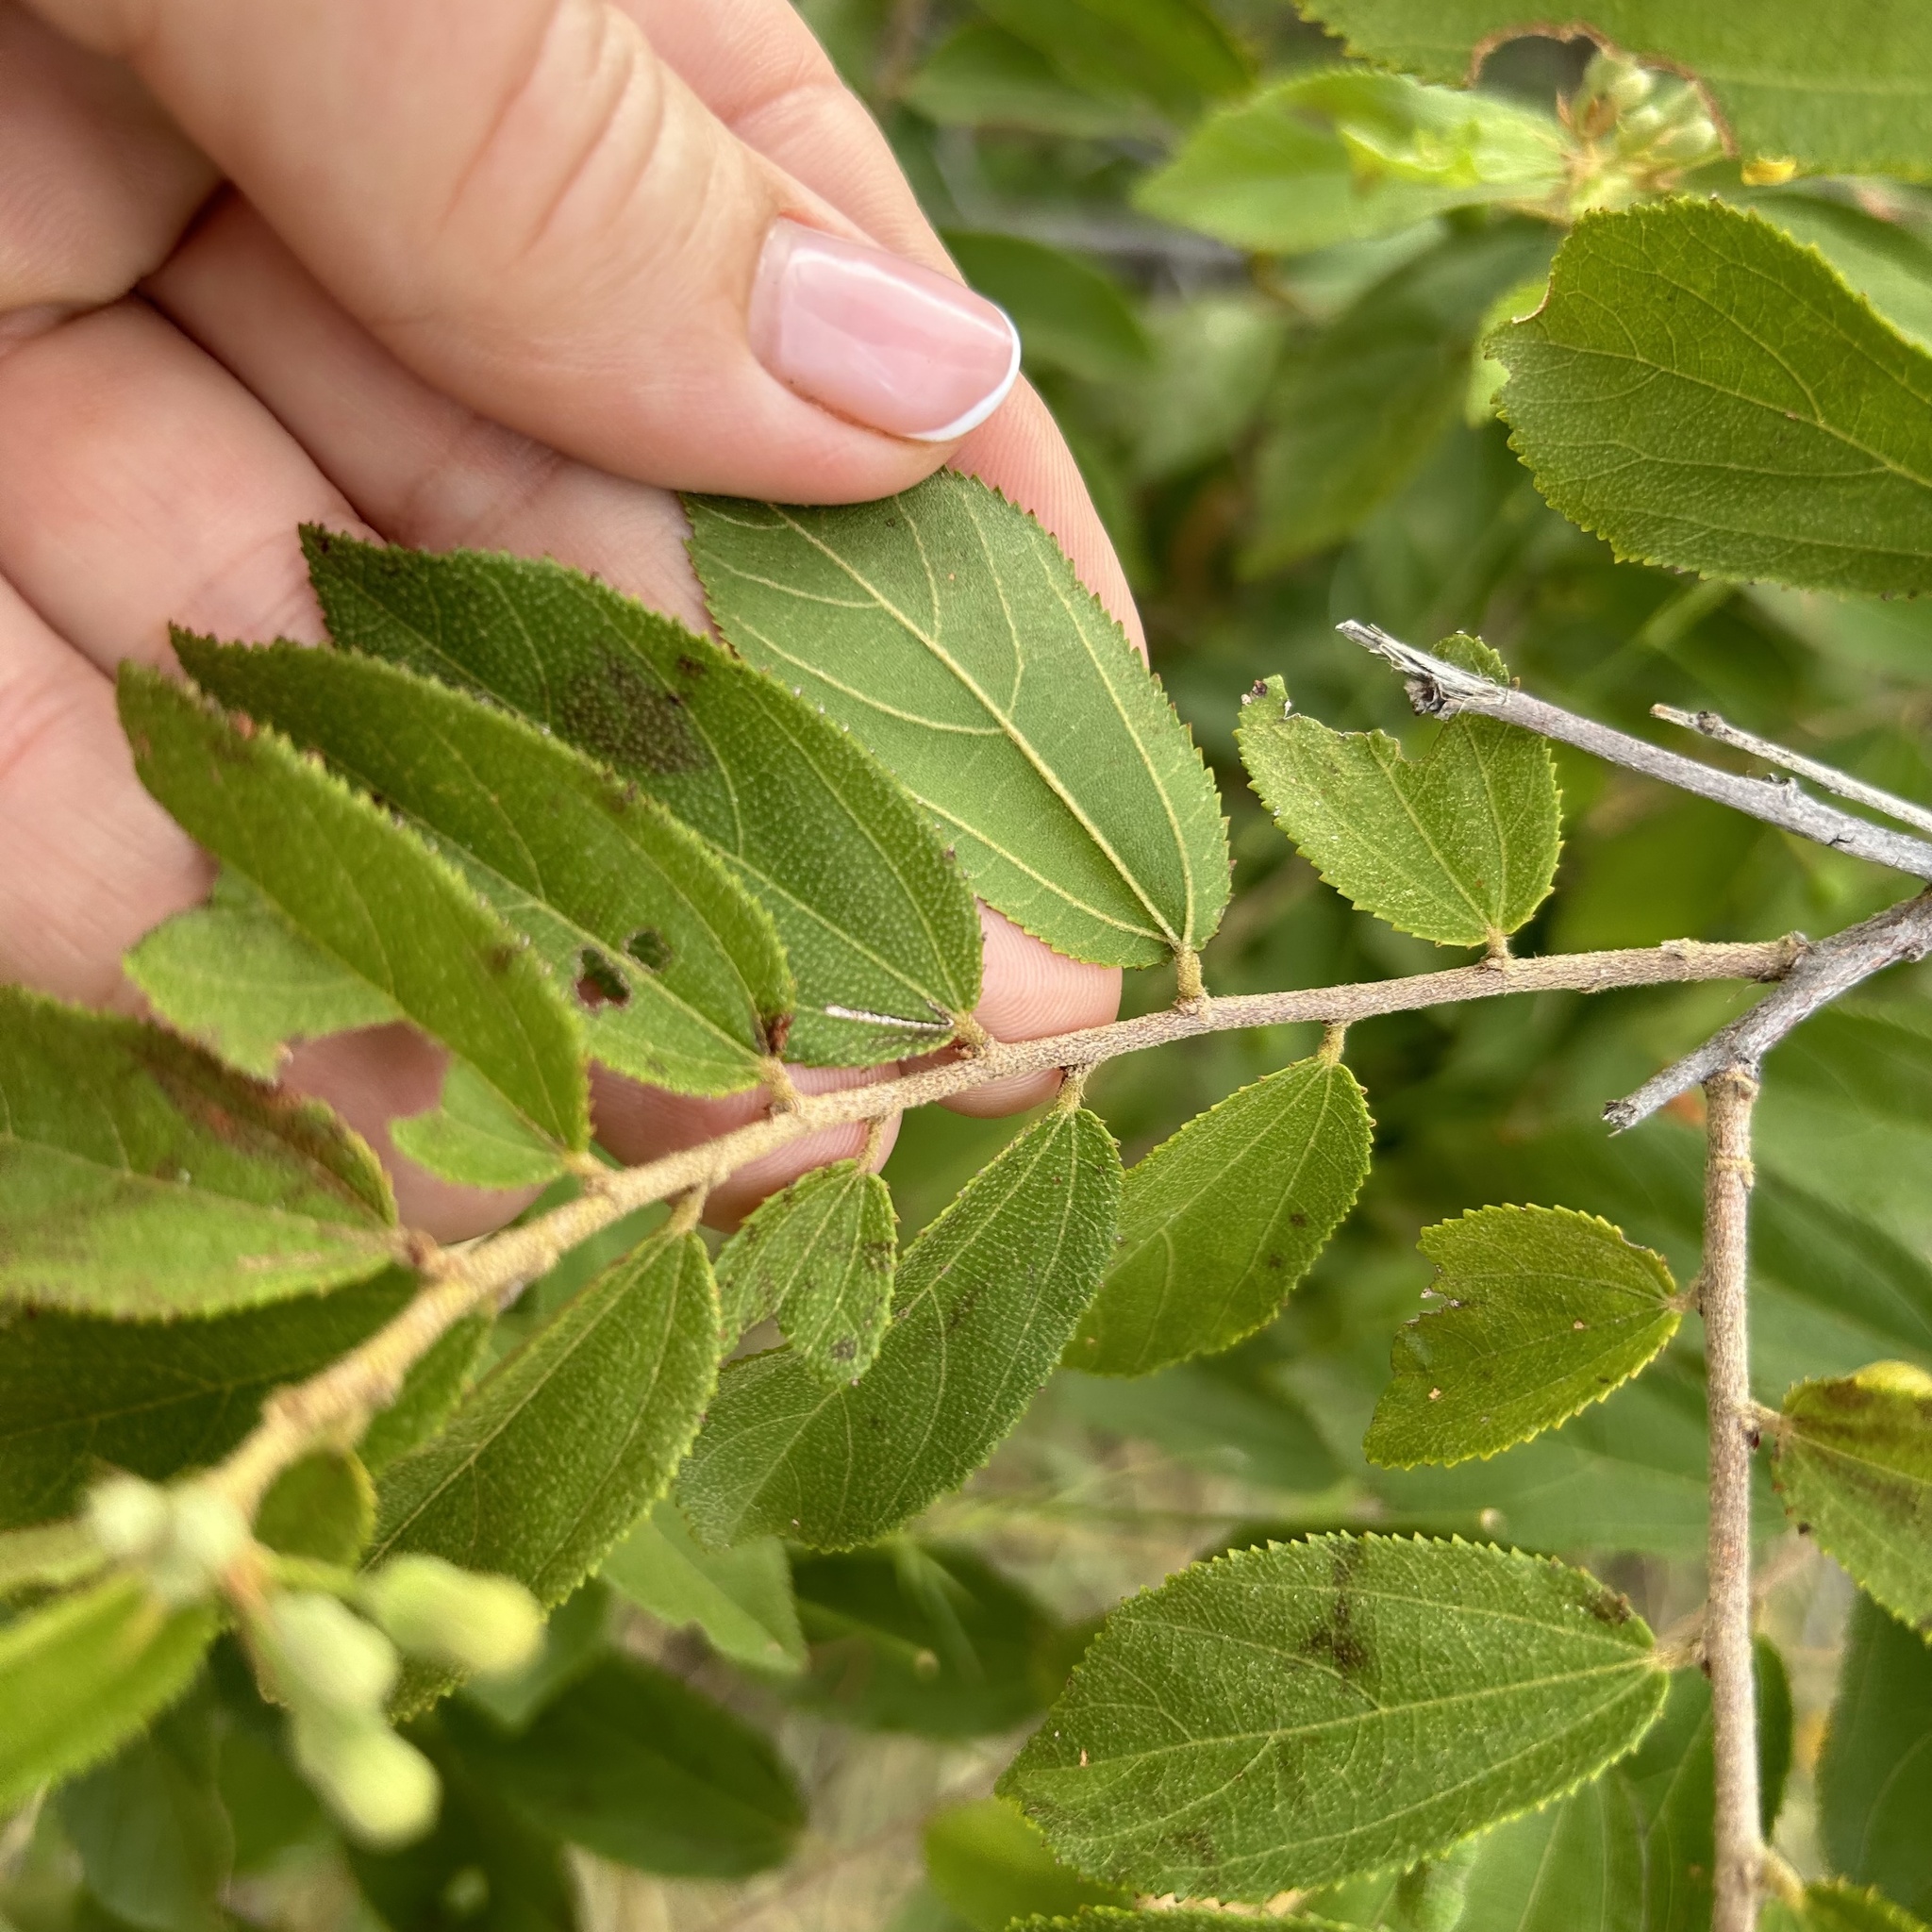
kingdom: Plantae
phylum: Tracheophyta
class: Magnoliopsida
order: Malvales
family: Malvaceae
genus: Grewia
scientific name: Grewia retinervis
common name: Kalahari raisin
